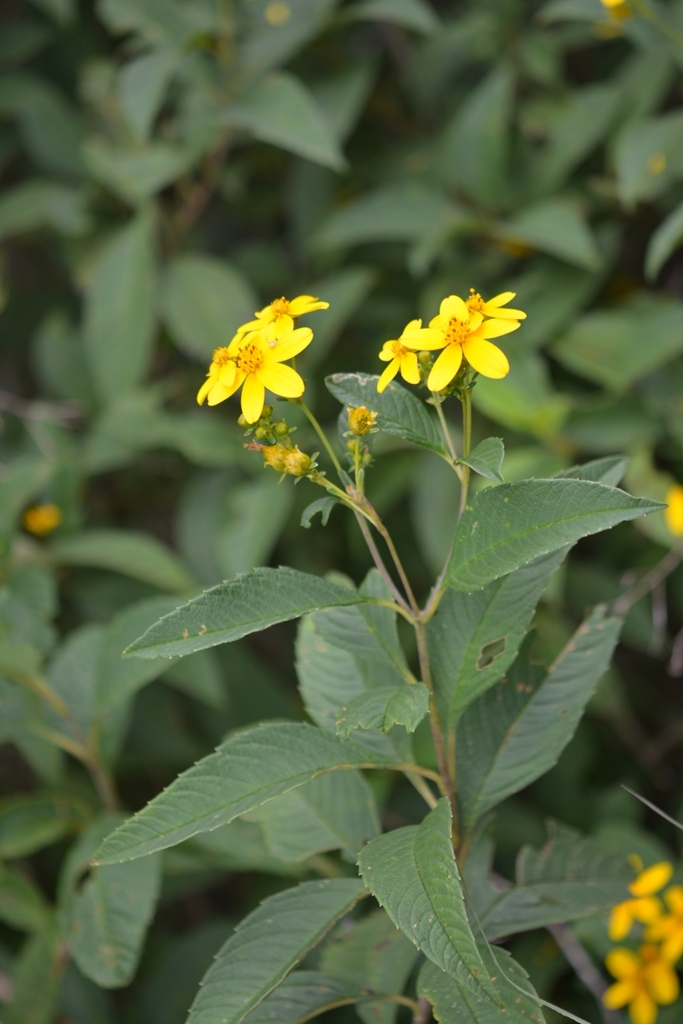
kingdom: Plantae
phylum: Tracheophyta
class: Magnoliopsida
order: Asterales
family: Asteraceae
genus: Electranthera
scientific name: Electranthera mutica
